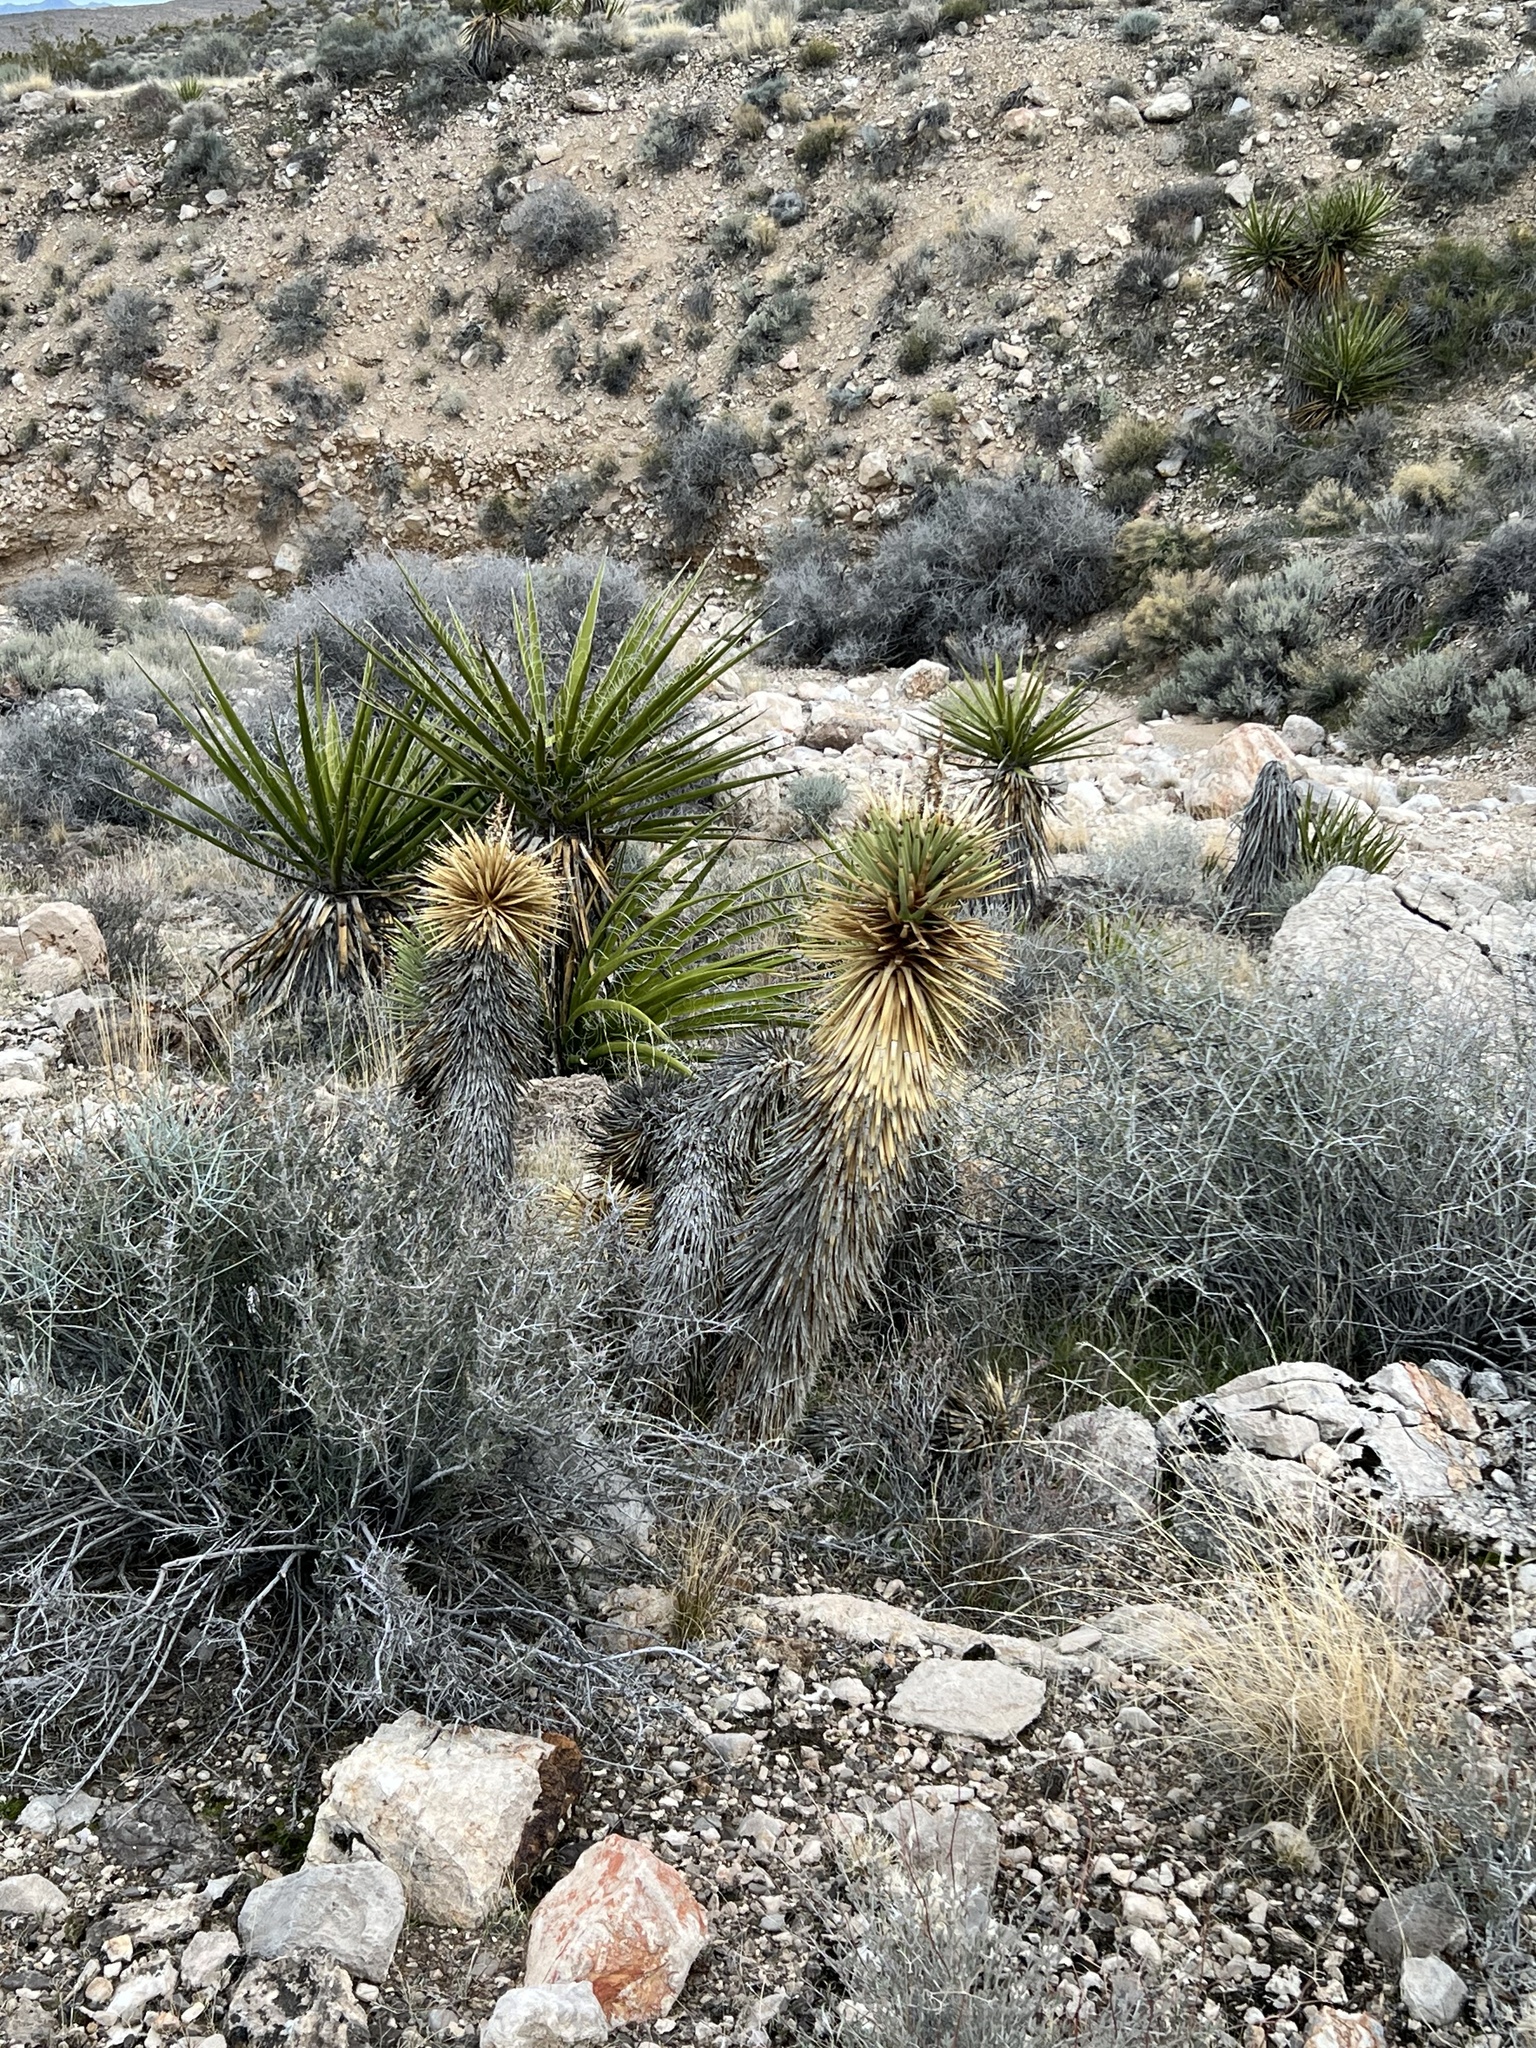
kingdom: Plantae
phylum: Tracheophyta
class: Liliopsida
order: Asparagales
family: Asparagaceae
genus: Yucca
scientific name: Yucca brevifolia
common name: Joshua tree
